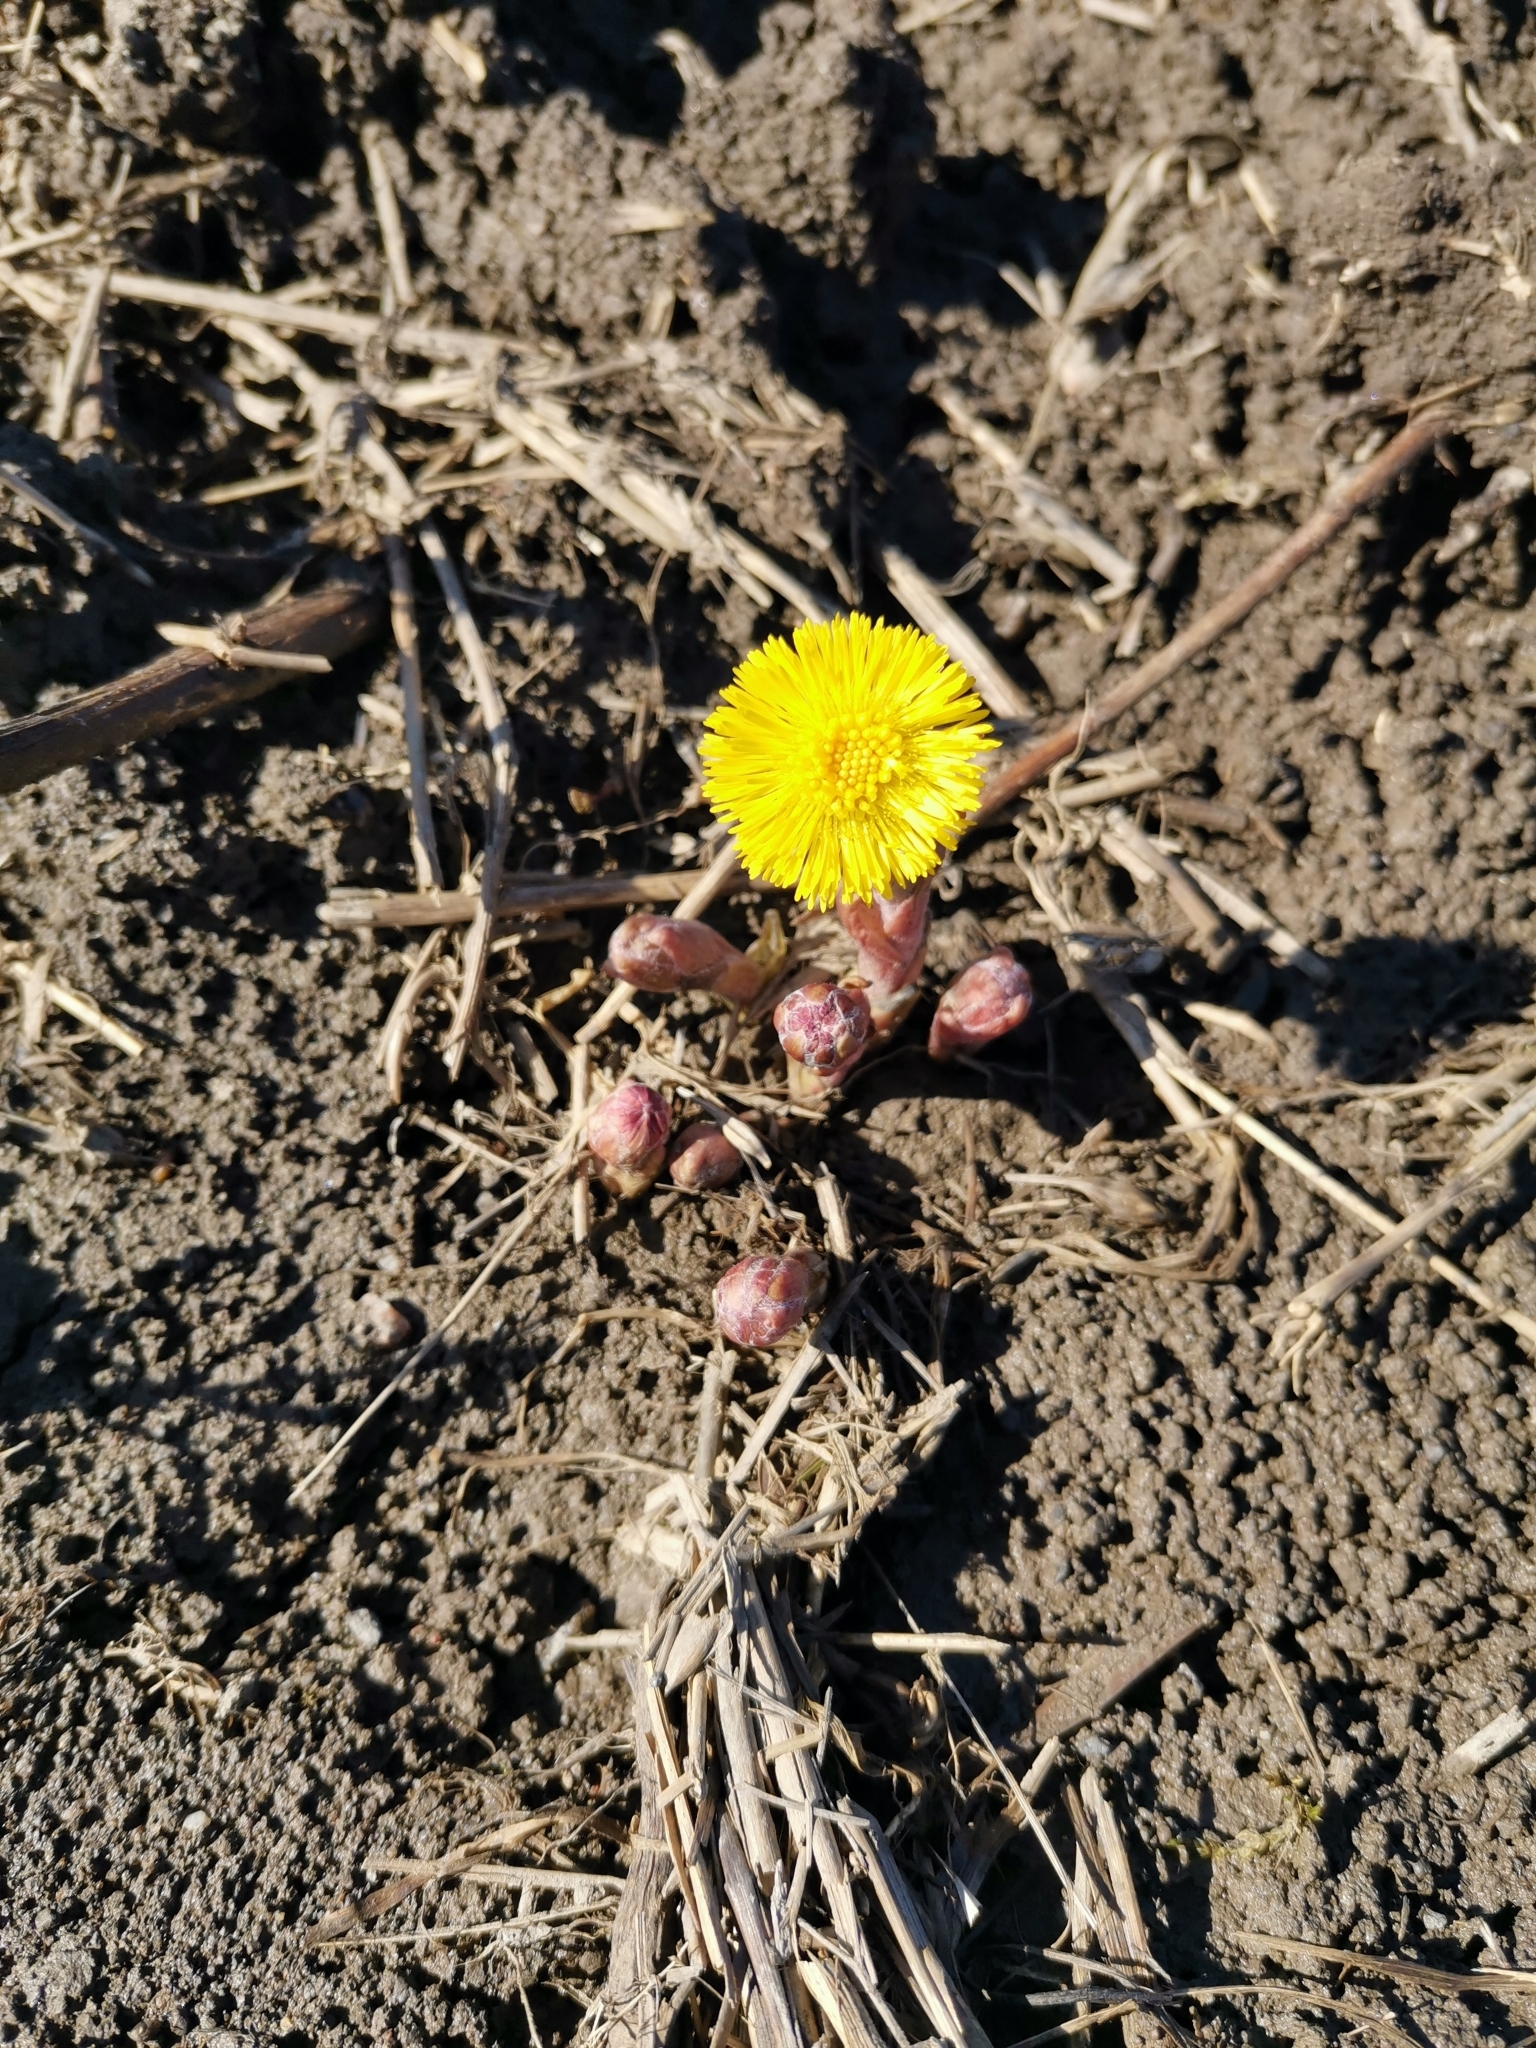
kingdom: Plantae
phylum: Tracheophyta
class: Magnoliopsida
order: Asterales
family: Asteraceae
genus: Tussilago
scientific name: Tussilago farfara
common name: Coltsfoot
